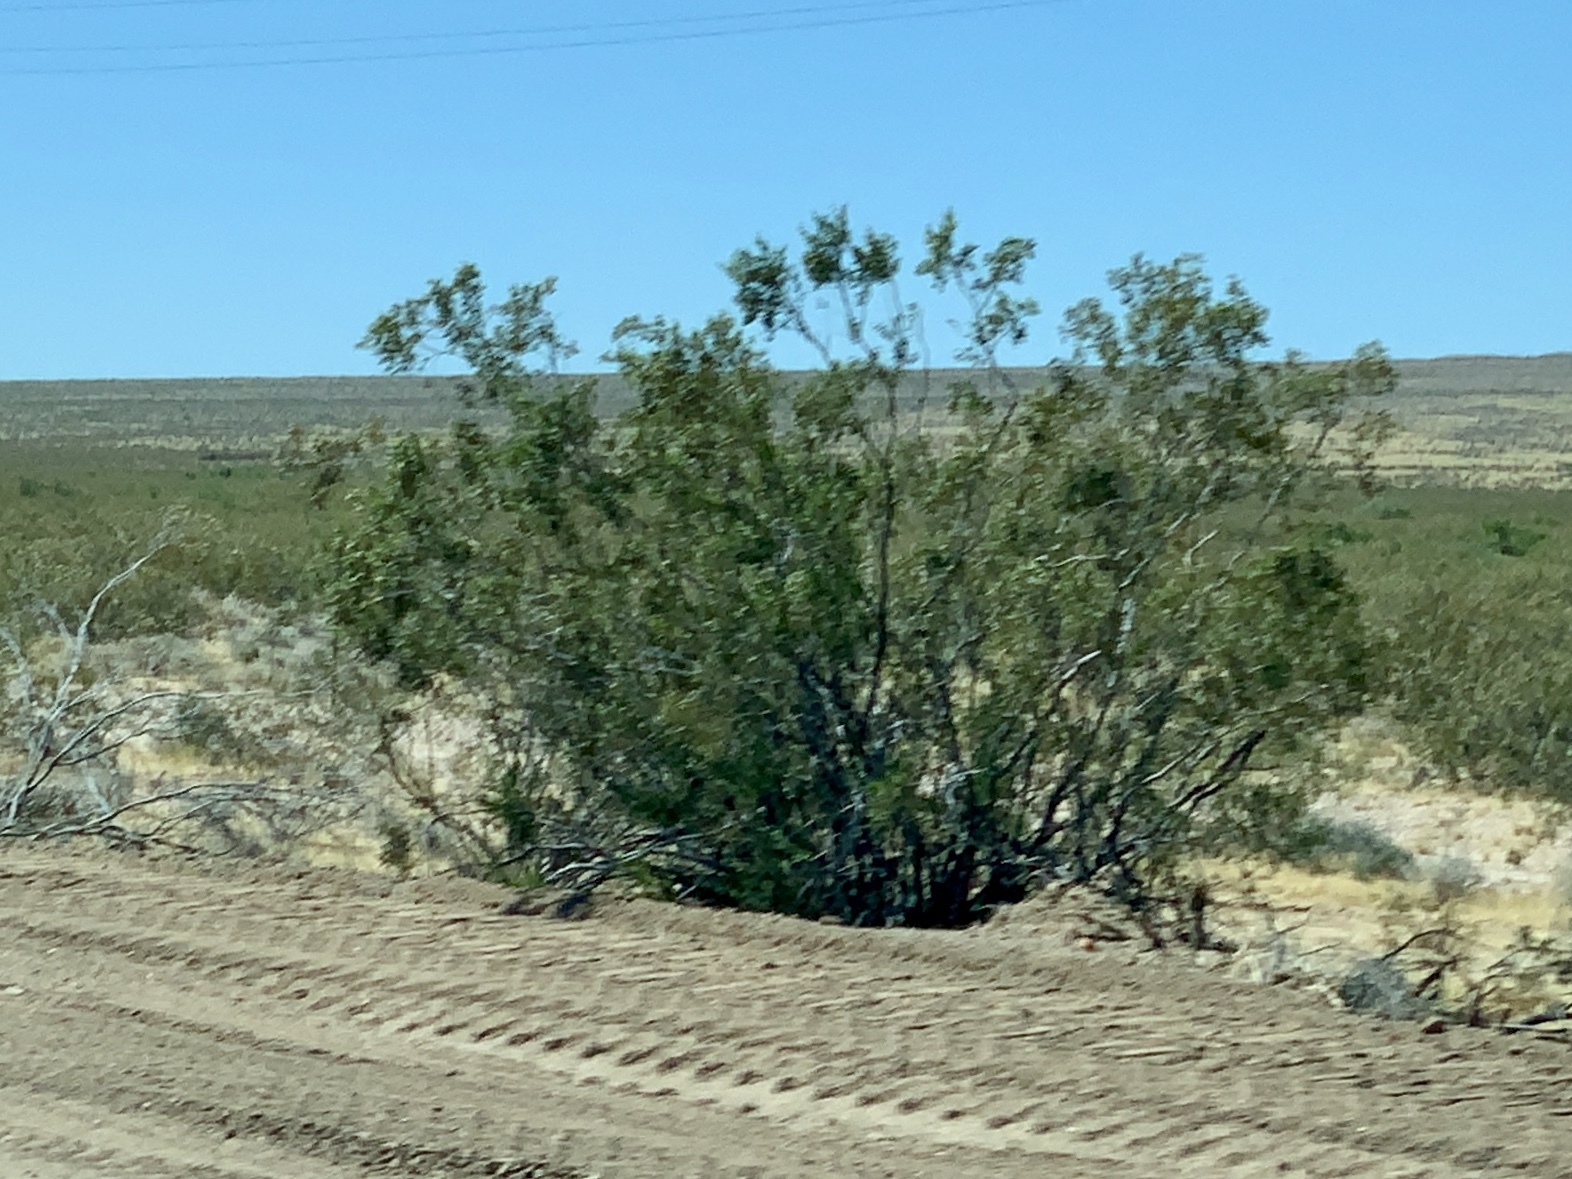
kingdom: Plantae
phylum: Tracheophyta
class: Magnoliopsida
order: Zygophyllales
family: Zygophyllaceae
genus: Larrea
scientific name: Larrea tridentata
